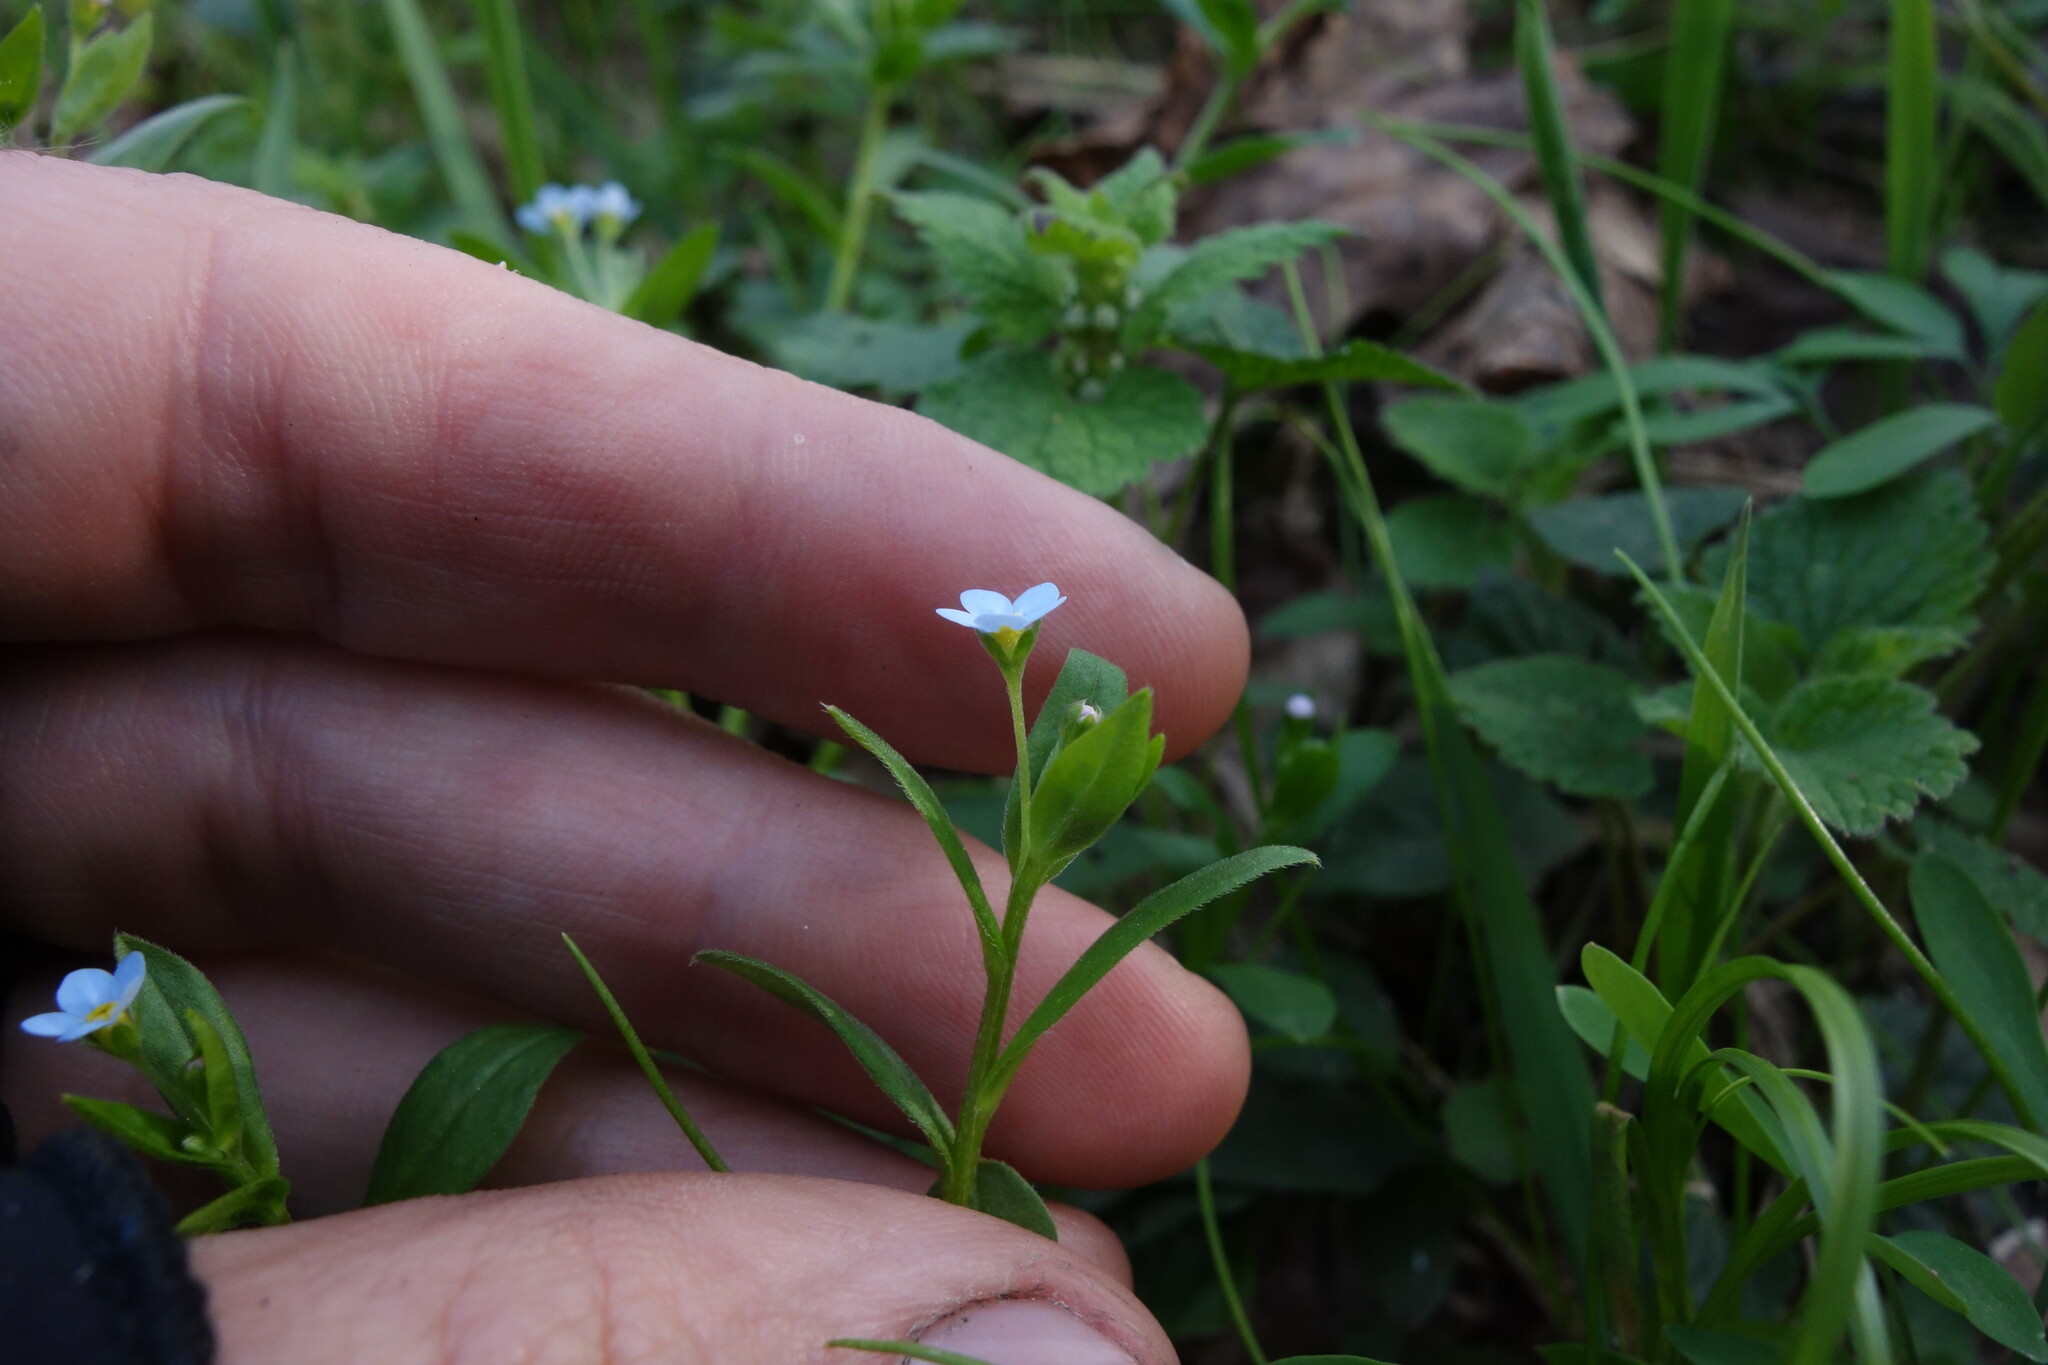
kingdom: Plantae
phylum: Tracheophyta
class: Magnoliopsida
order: Boraginales
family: Boraginaceae
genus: Memoremea
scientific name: Memoremea scorpioides
